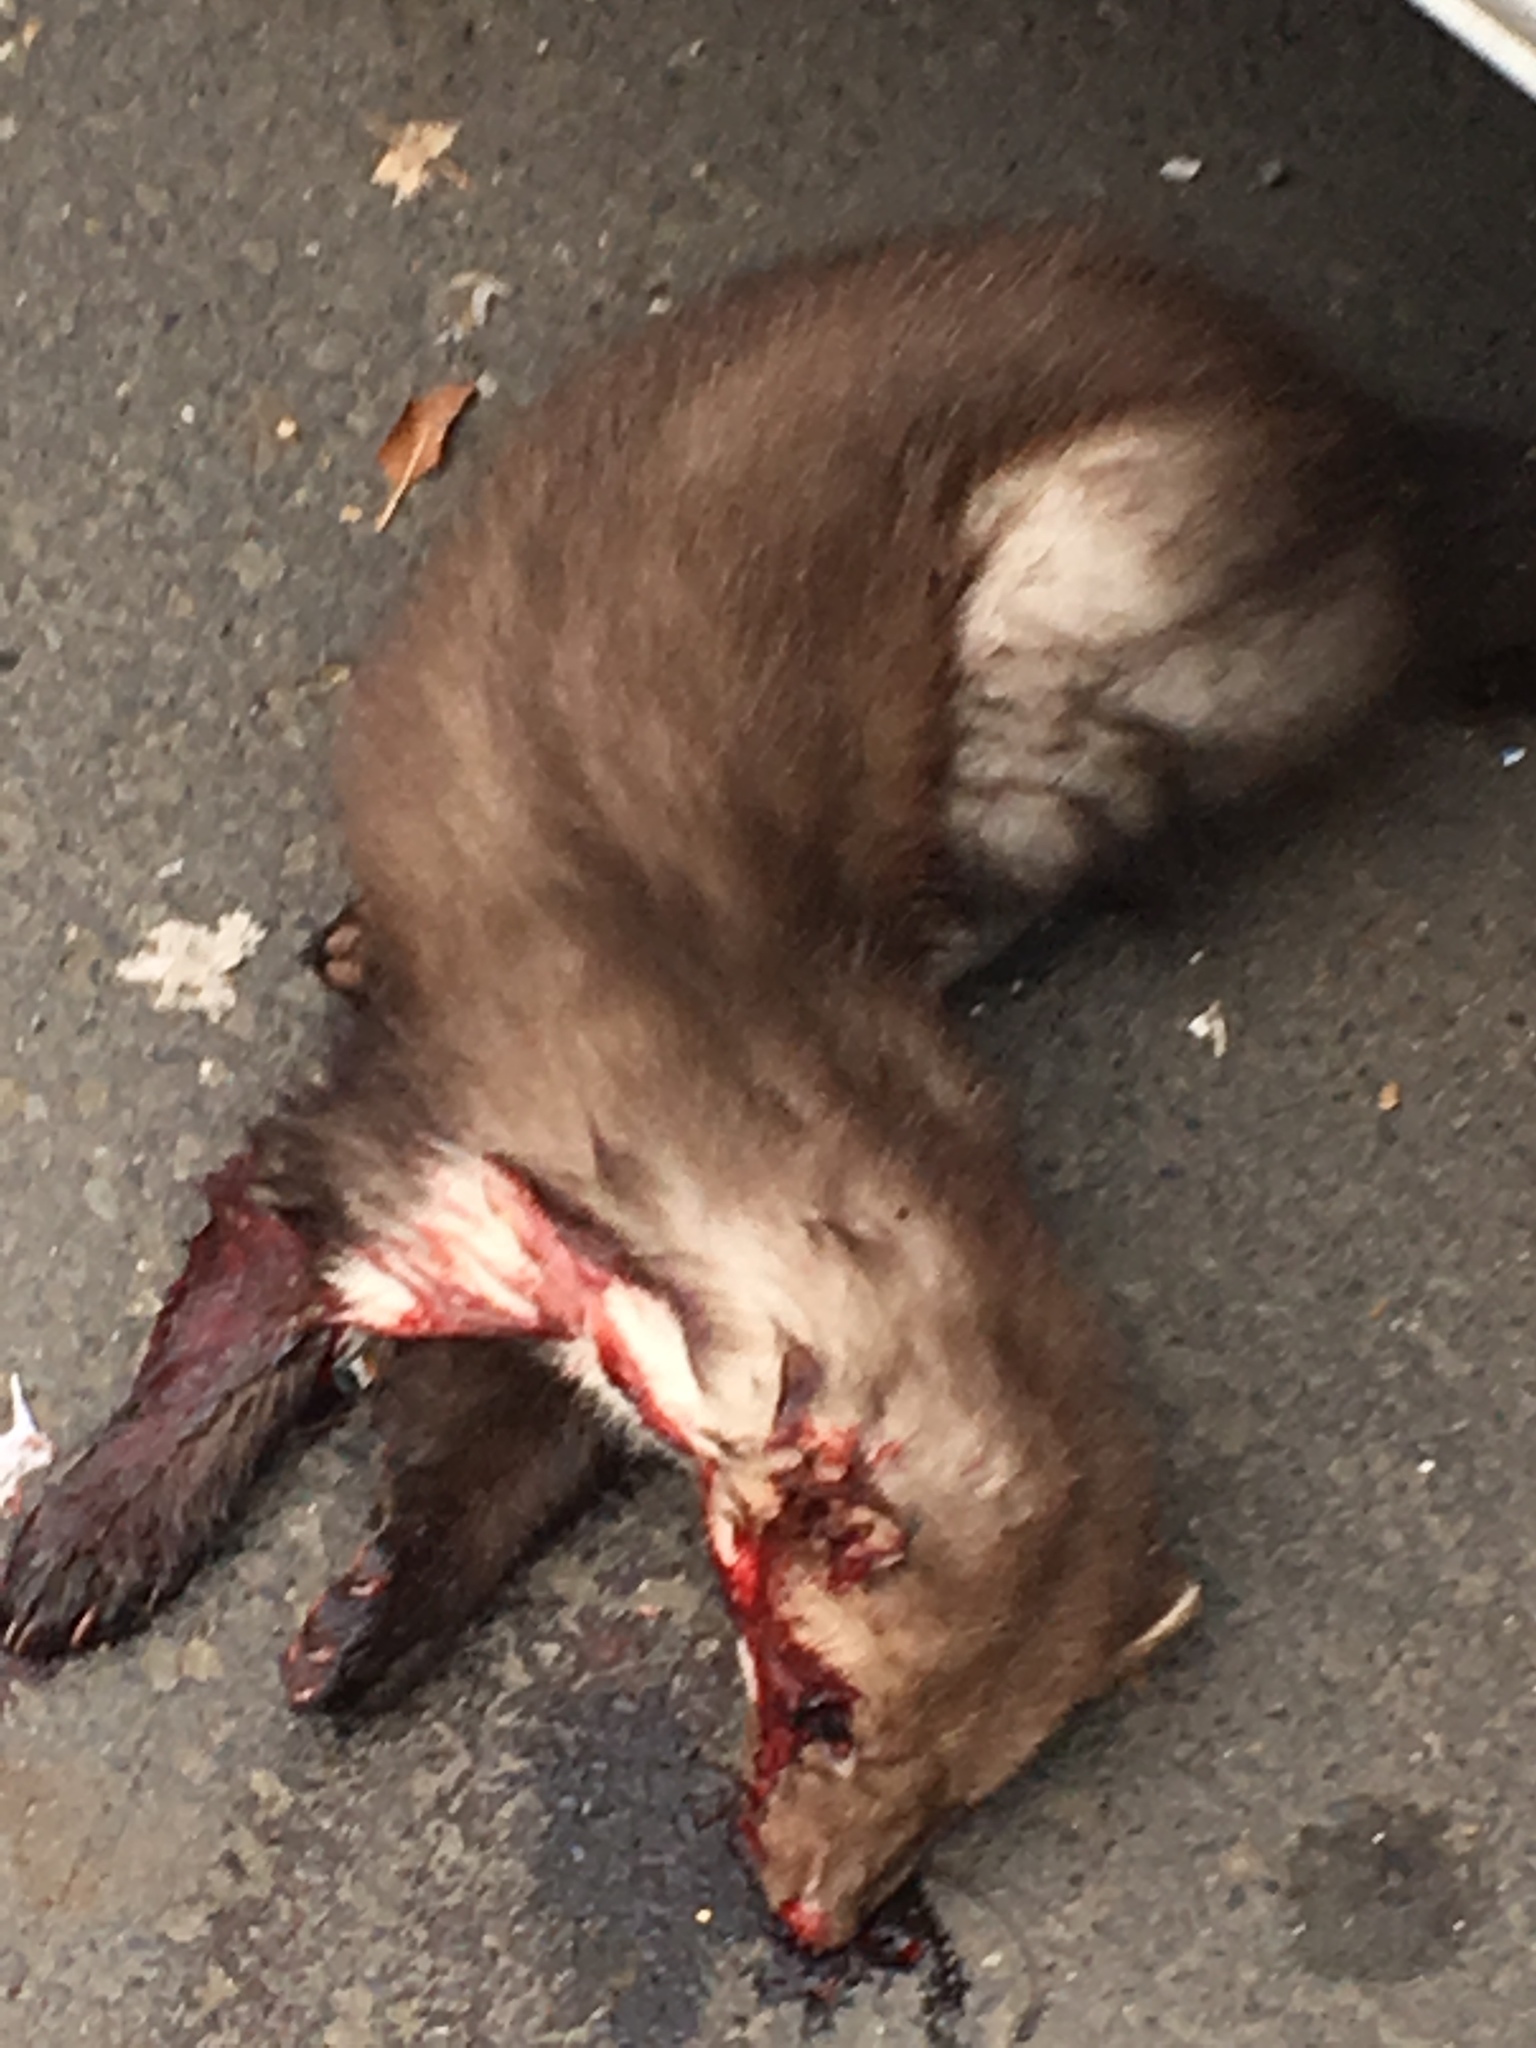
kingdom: Animalia
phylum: Chordata
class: Mammalia
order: Carnivora
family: Mustelidae
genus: Martes
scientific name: Martes foina
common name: Beech marten
